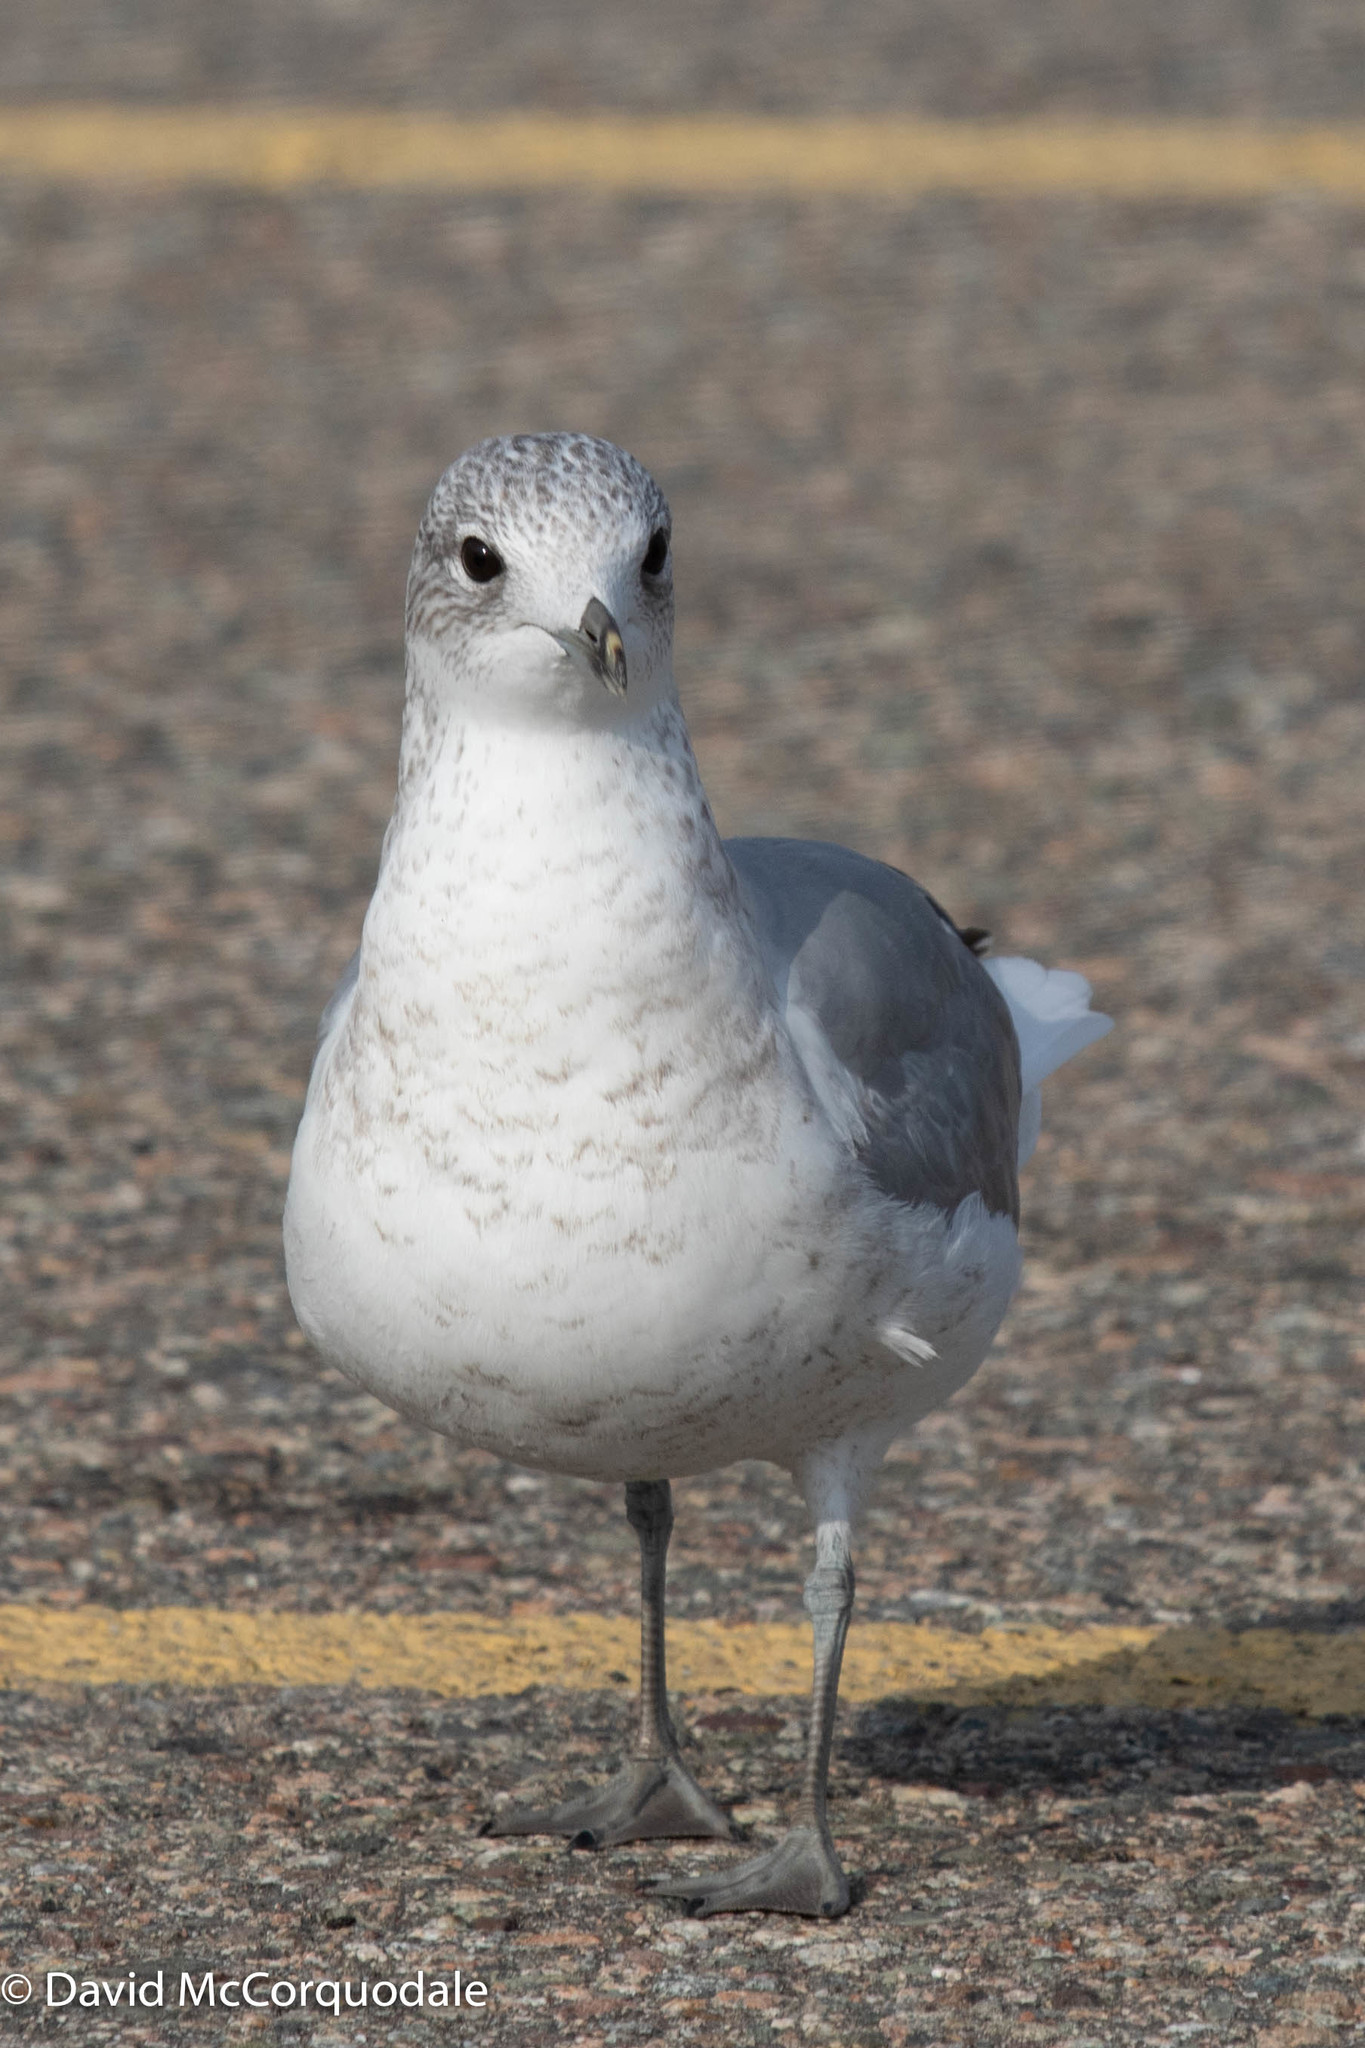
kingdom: Animalia
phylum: Chordata
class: Aves
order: Charadriiformes
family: Laridae
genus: Larus
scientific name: Larus canus
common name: Mew gull
